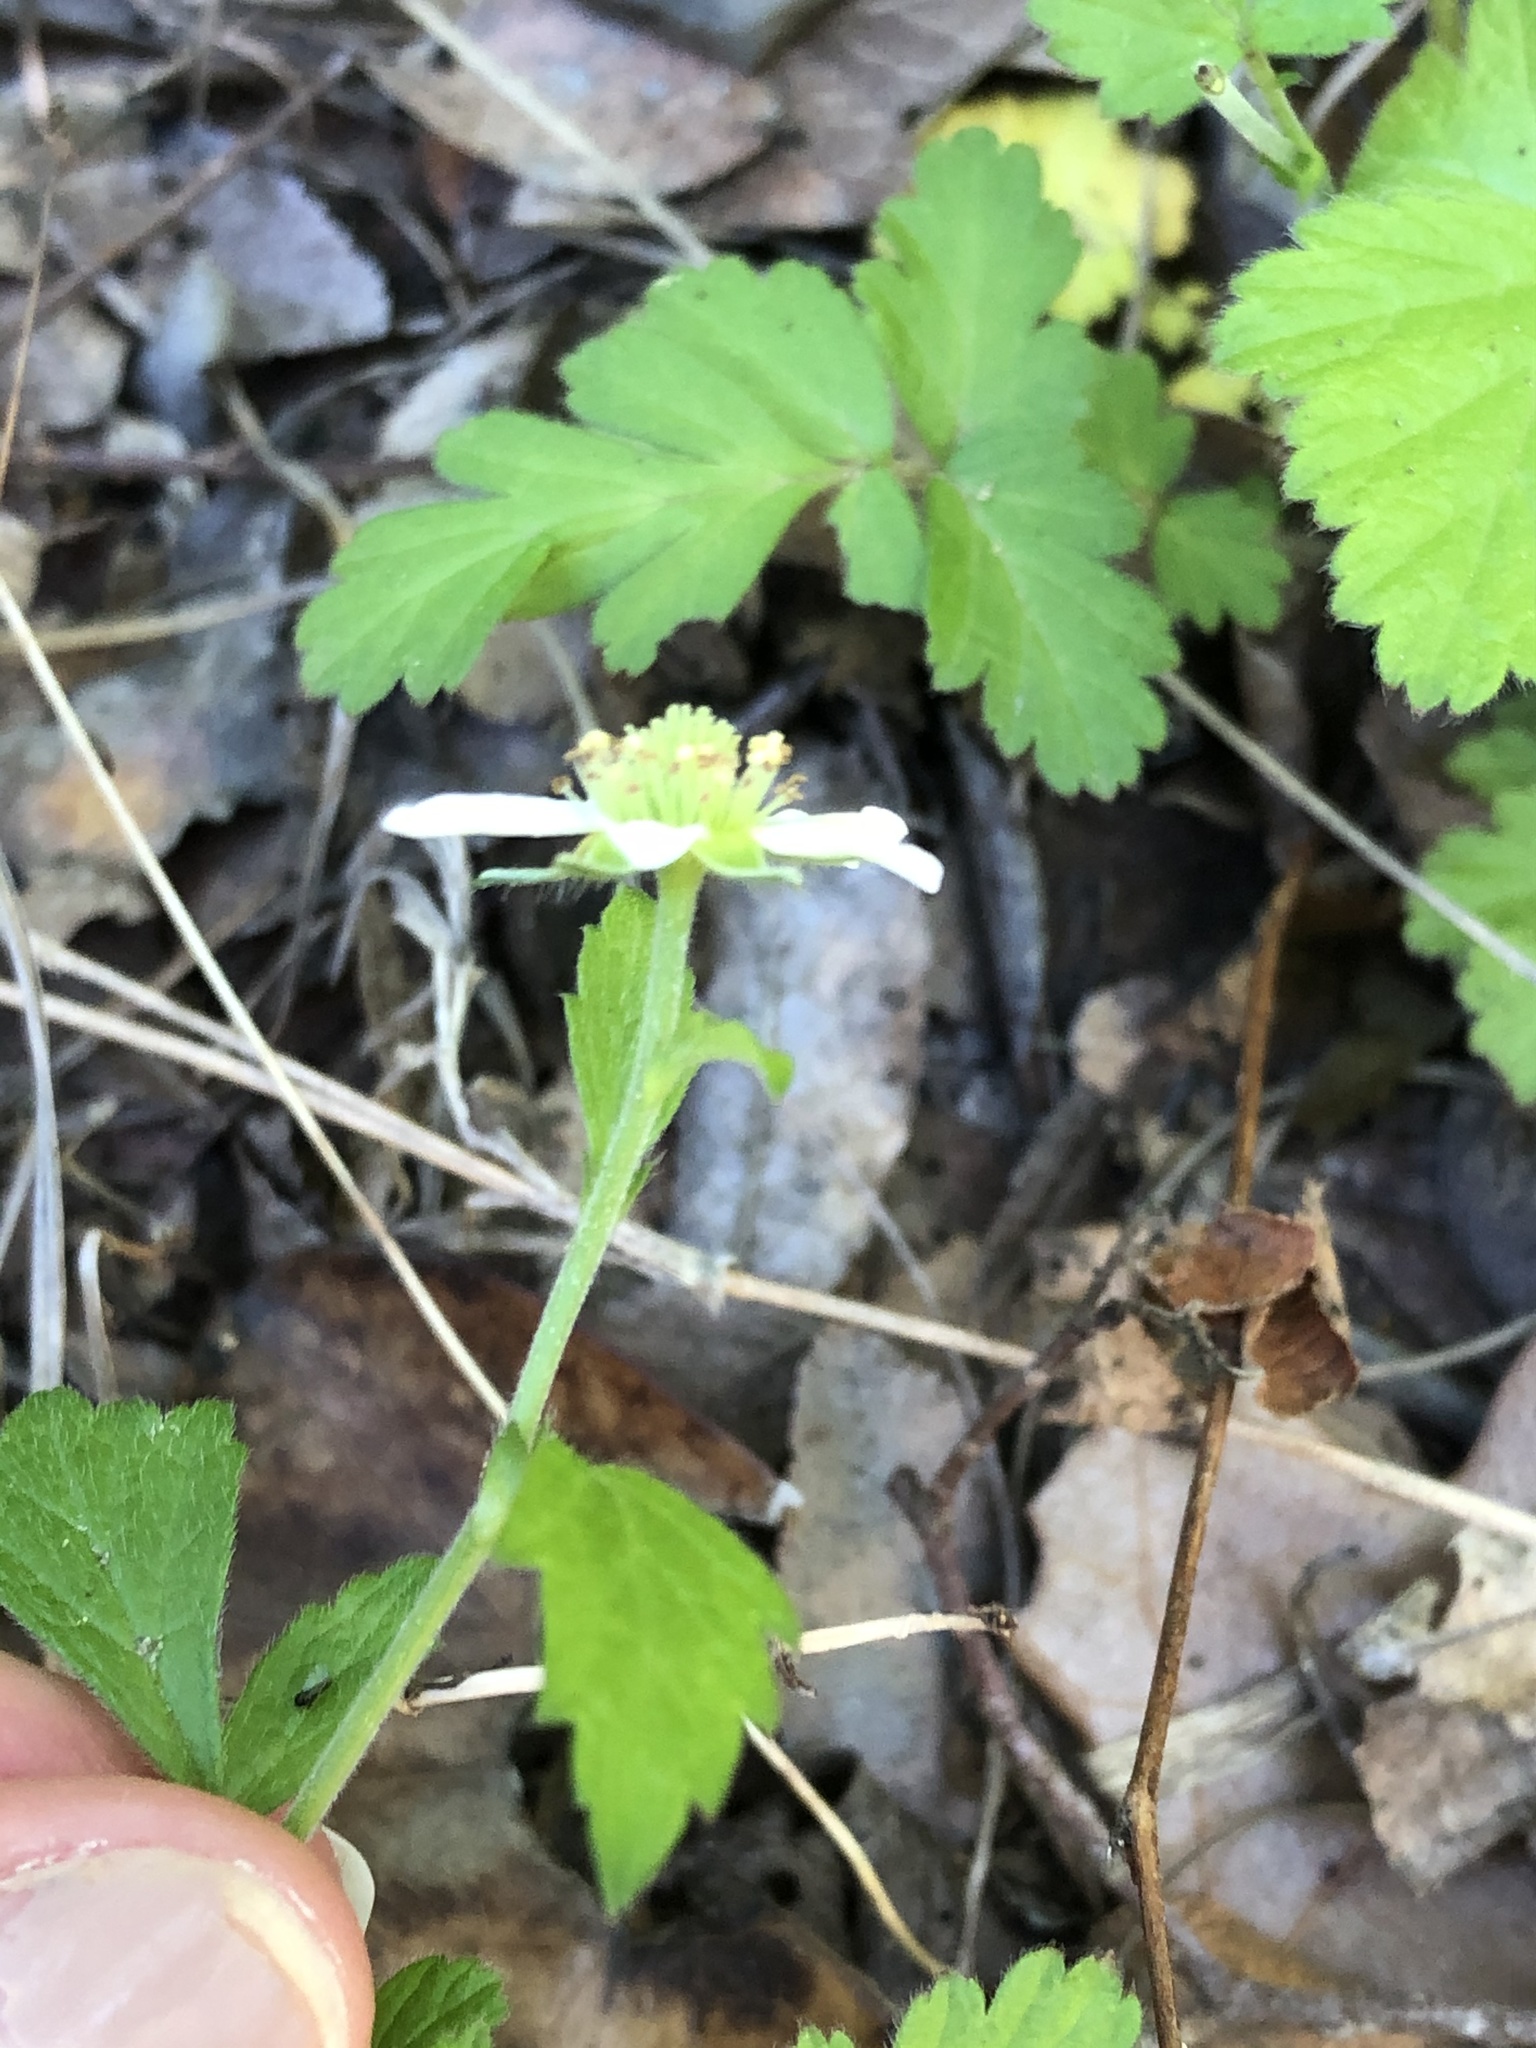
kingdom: Plantae
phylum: Tracheophyta
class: Magnoliopsida
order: Rosales
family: Rosaceae
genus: Geum
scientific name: Geum canadense
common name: White avens
